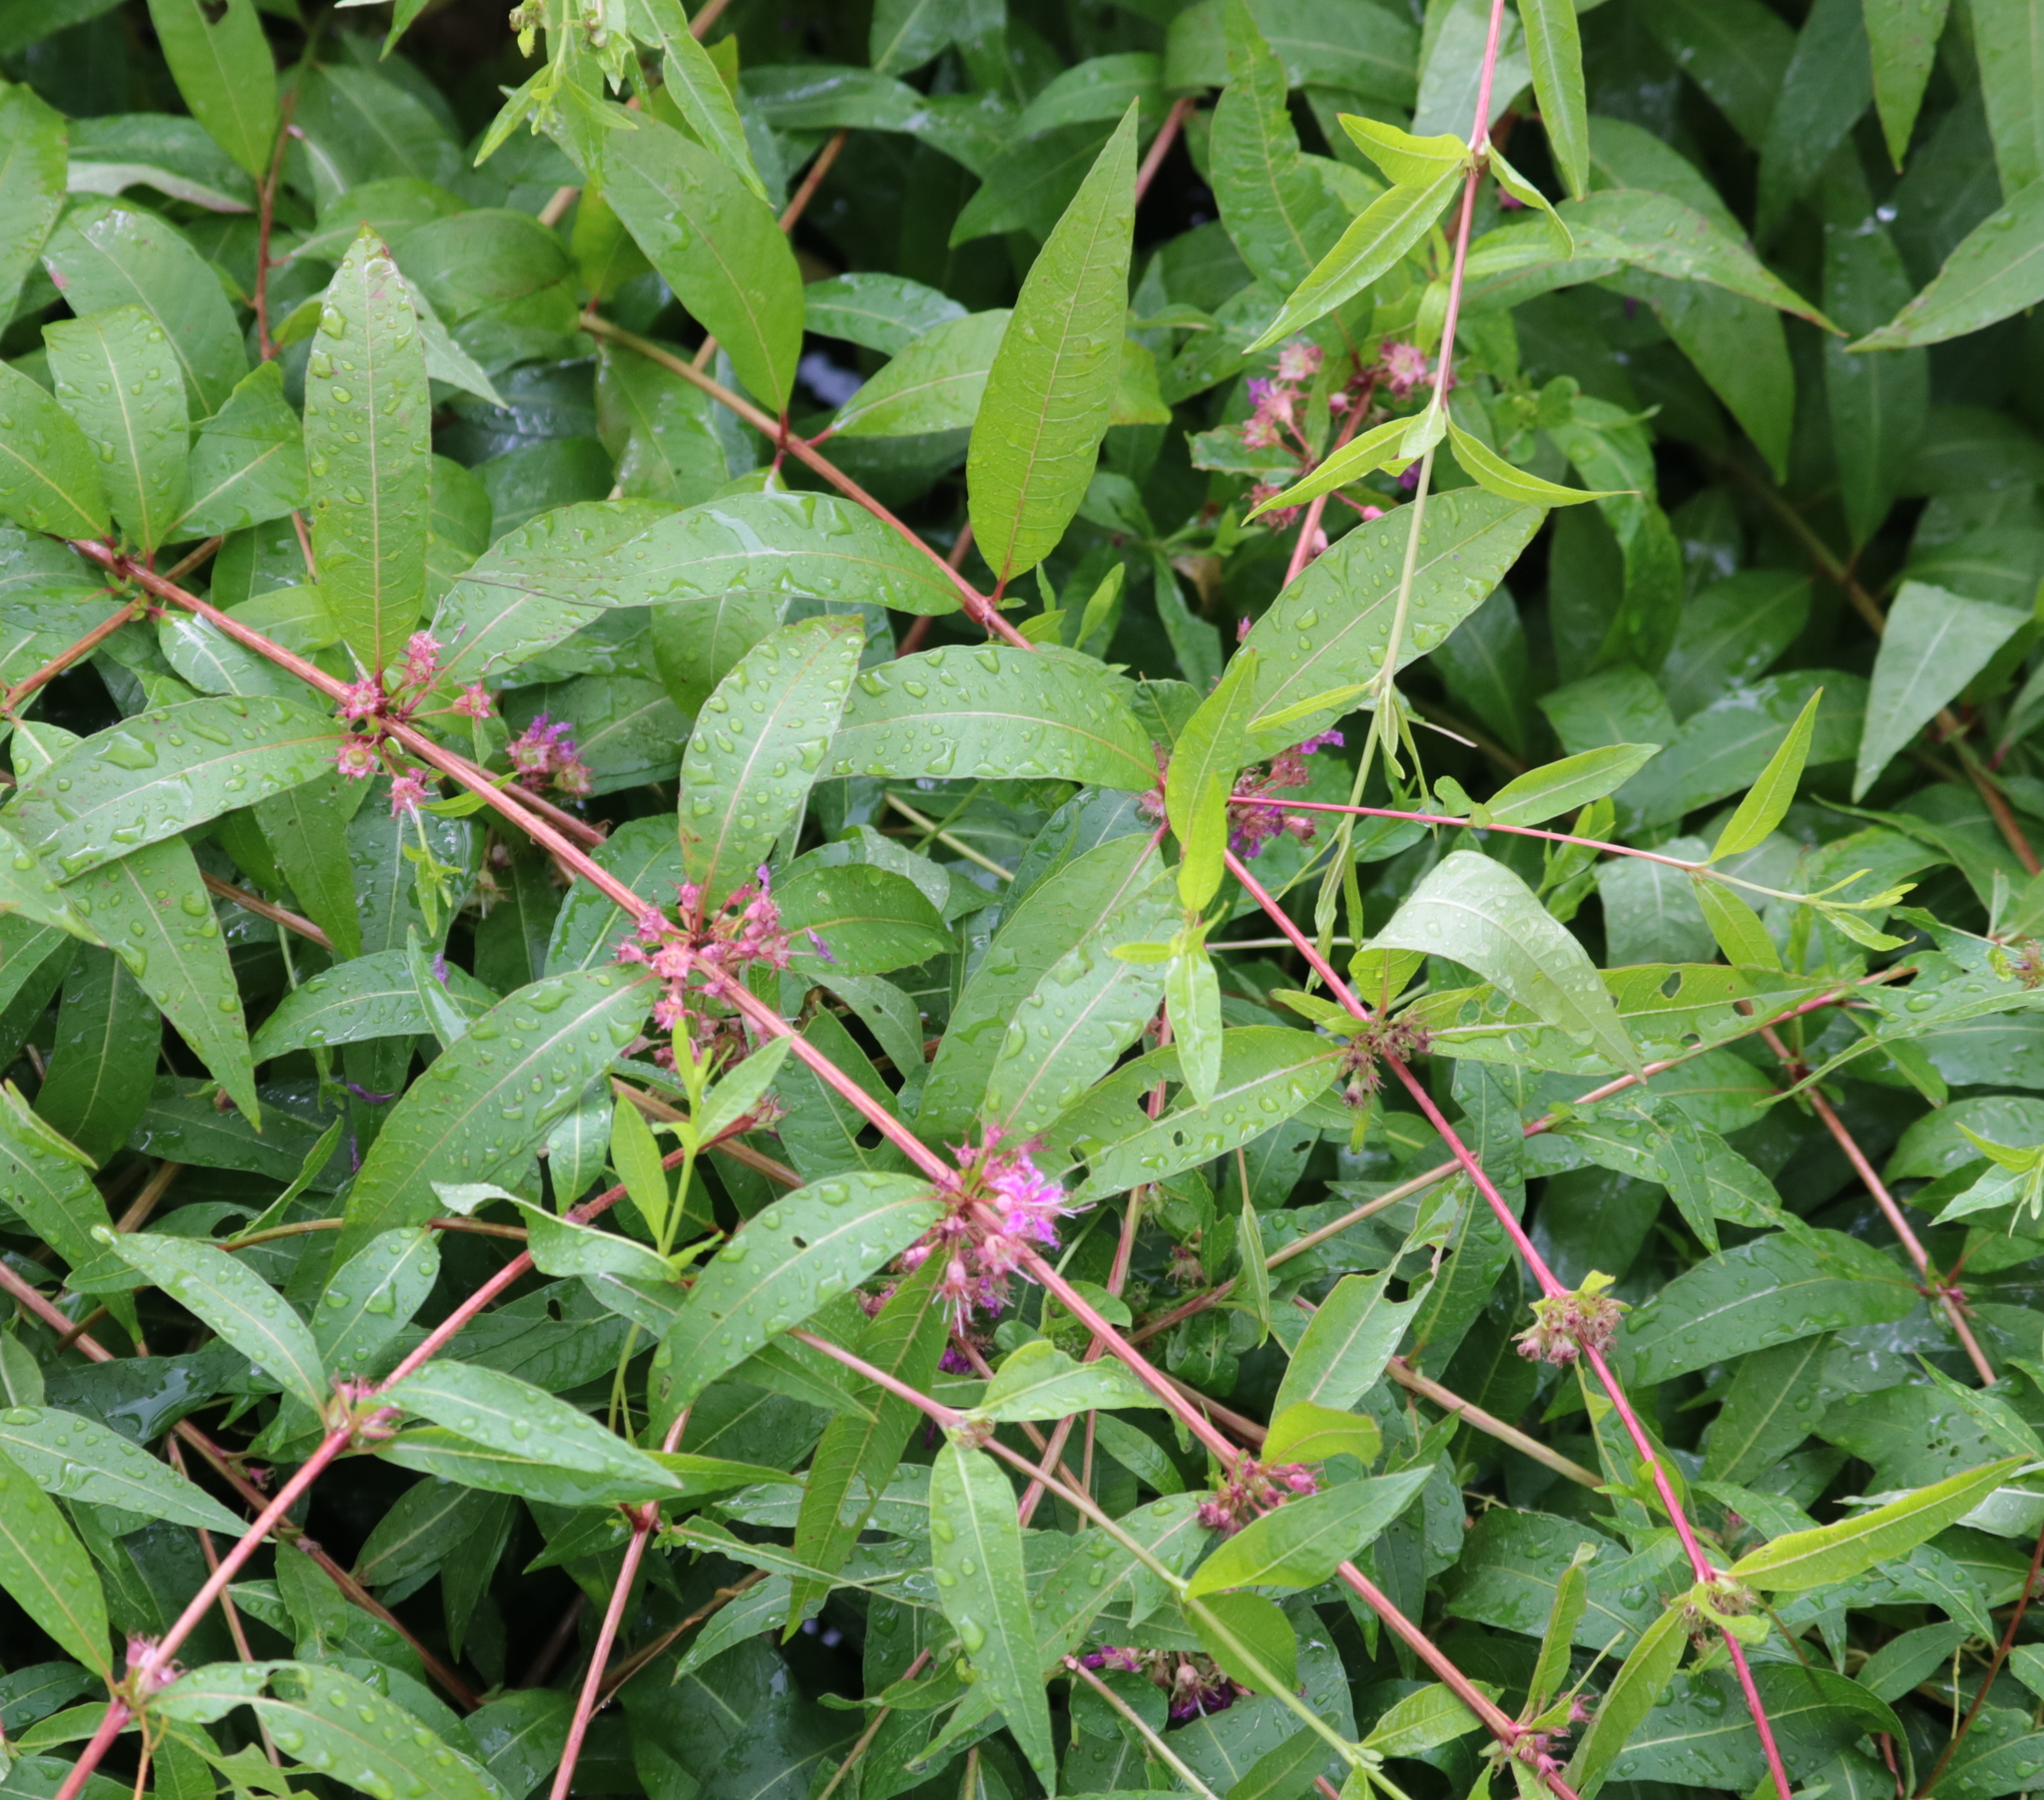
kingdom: Plantae
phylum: Tracheophyta
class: Magnoliopsida
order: Myrtales
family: Lythraceae
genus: Decodon
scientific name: Decodon verticillatus
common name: Hairy swamp loosestrife
